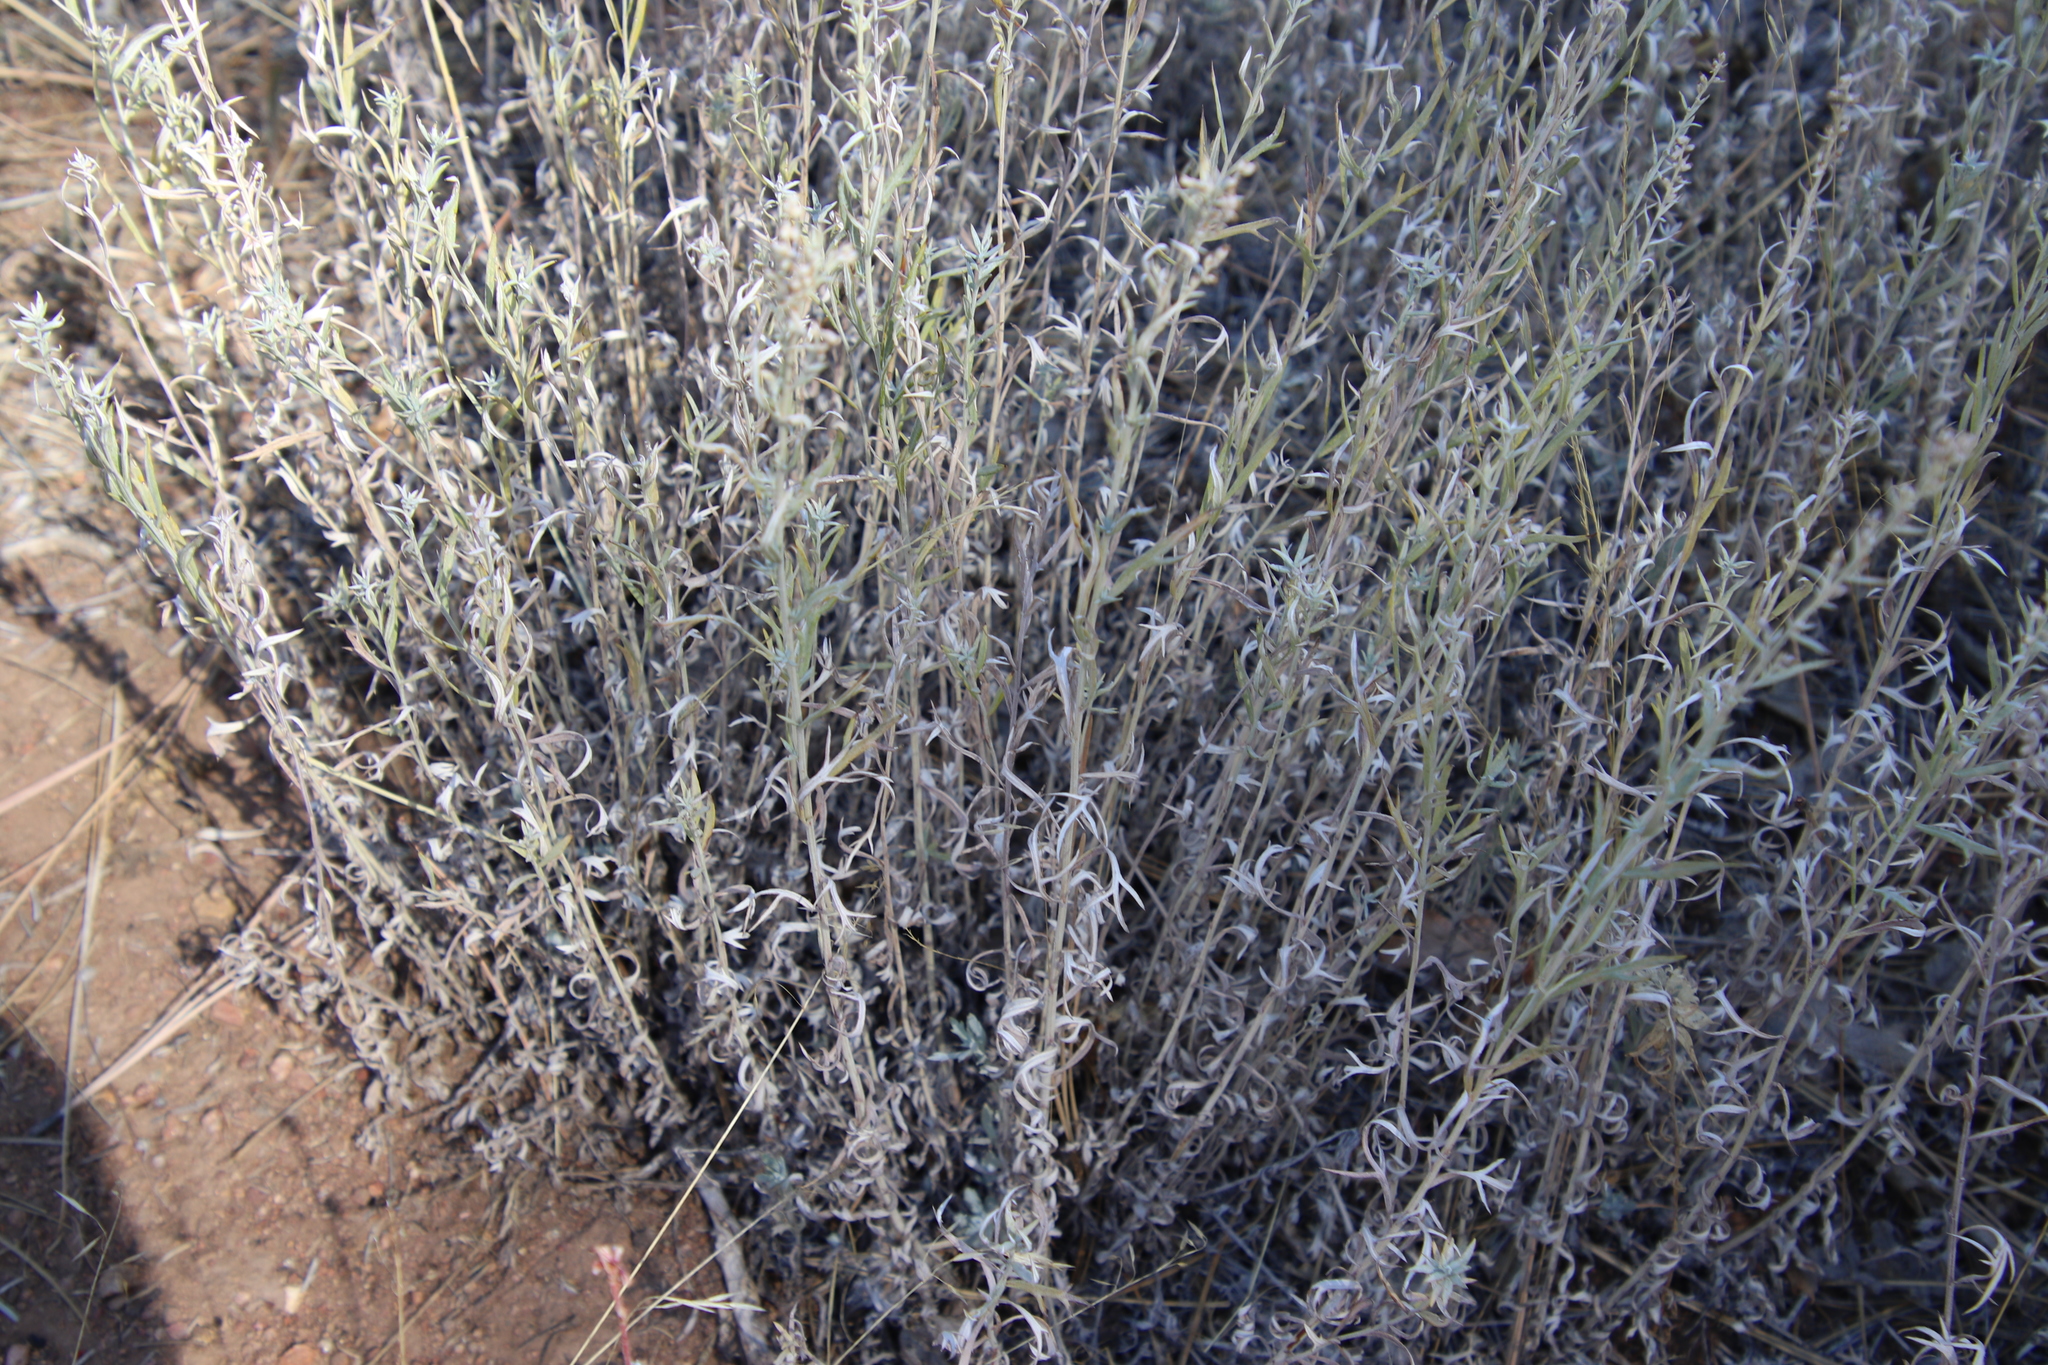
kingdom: Plantae
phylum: Tracheophyta
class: Magnoliopsida
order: Asterales
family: Asteraceae
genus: Artemisia
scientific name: Artemisia ludoviciana
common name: Western mugwort
